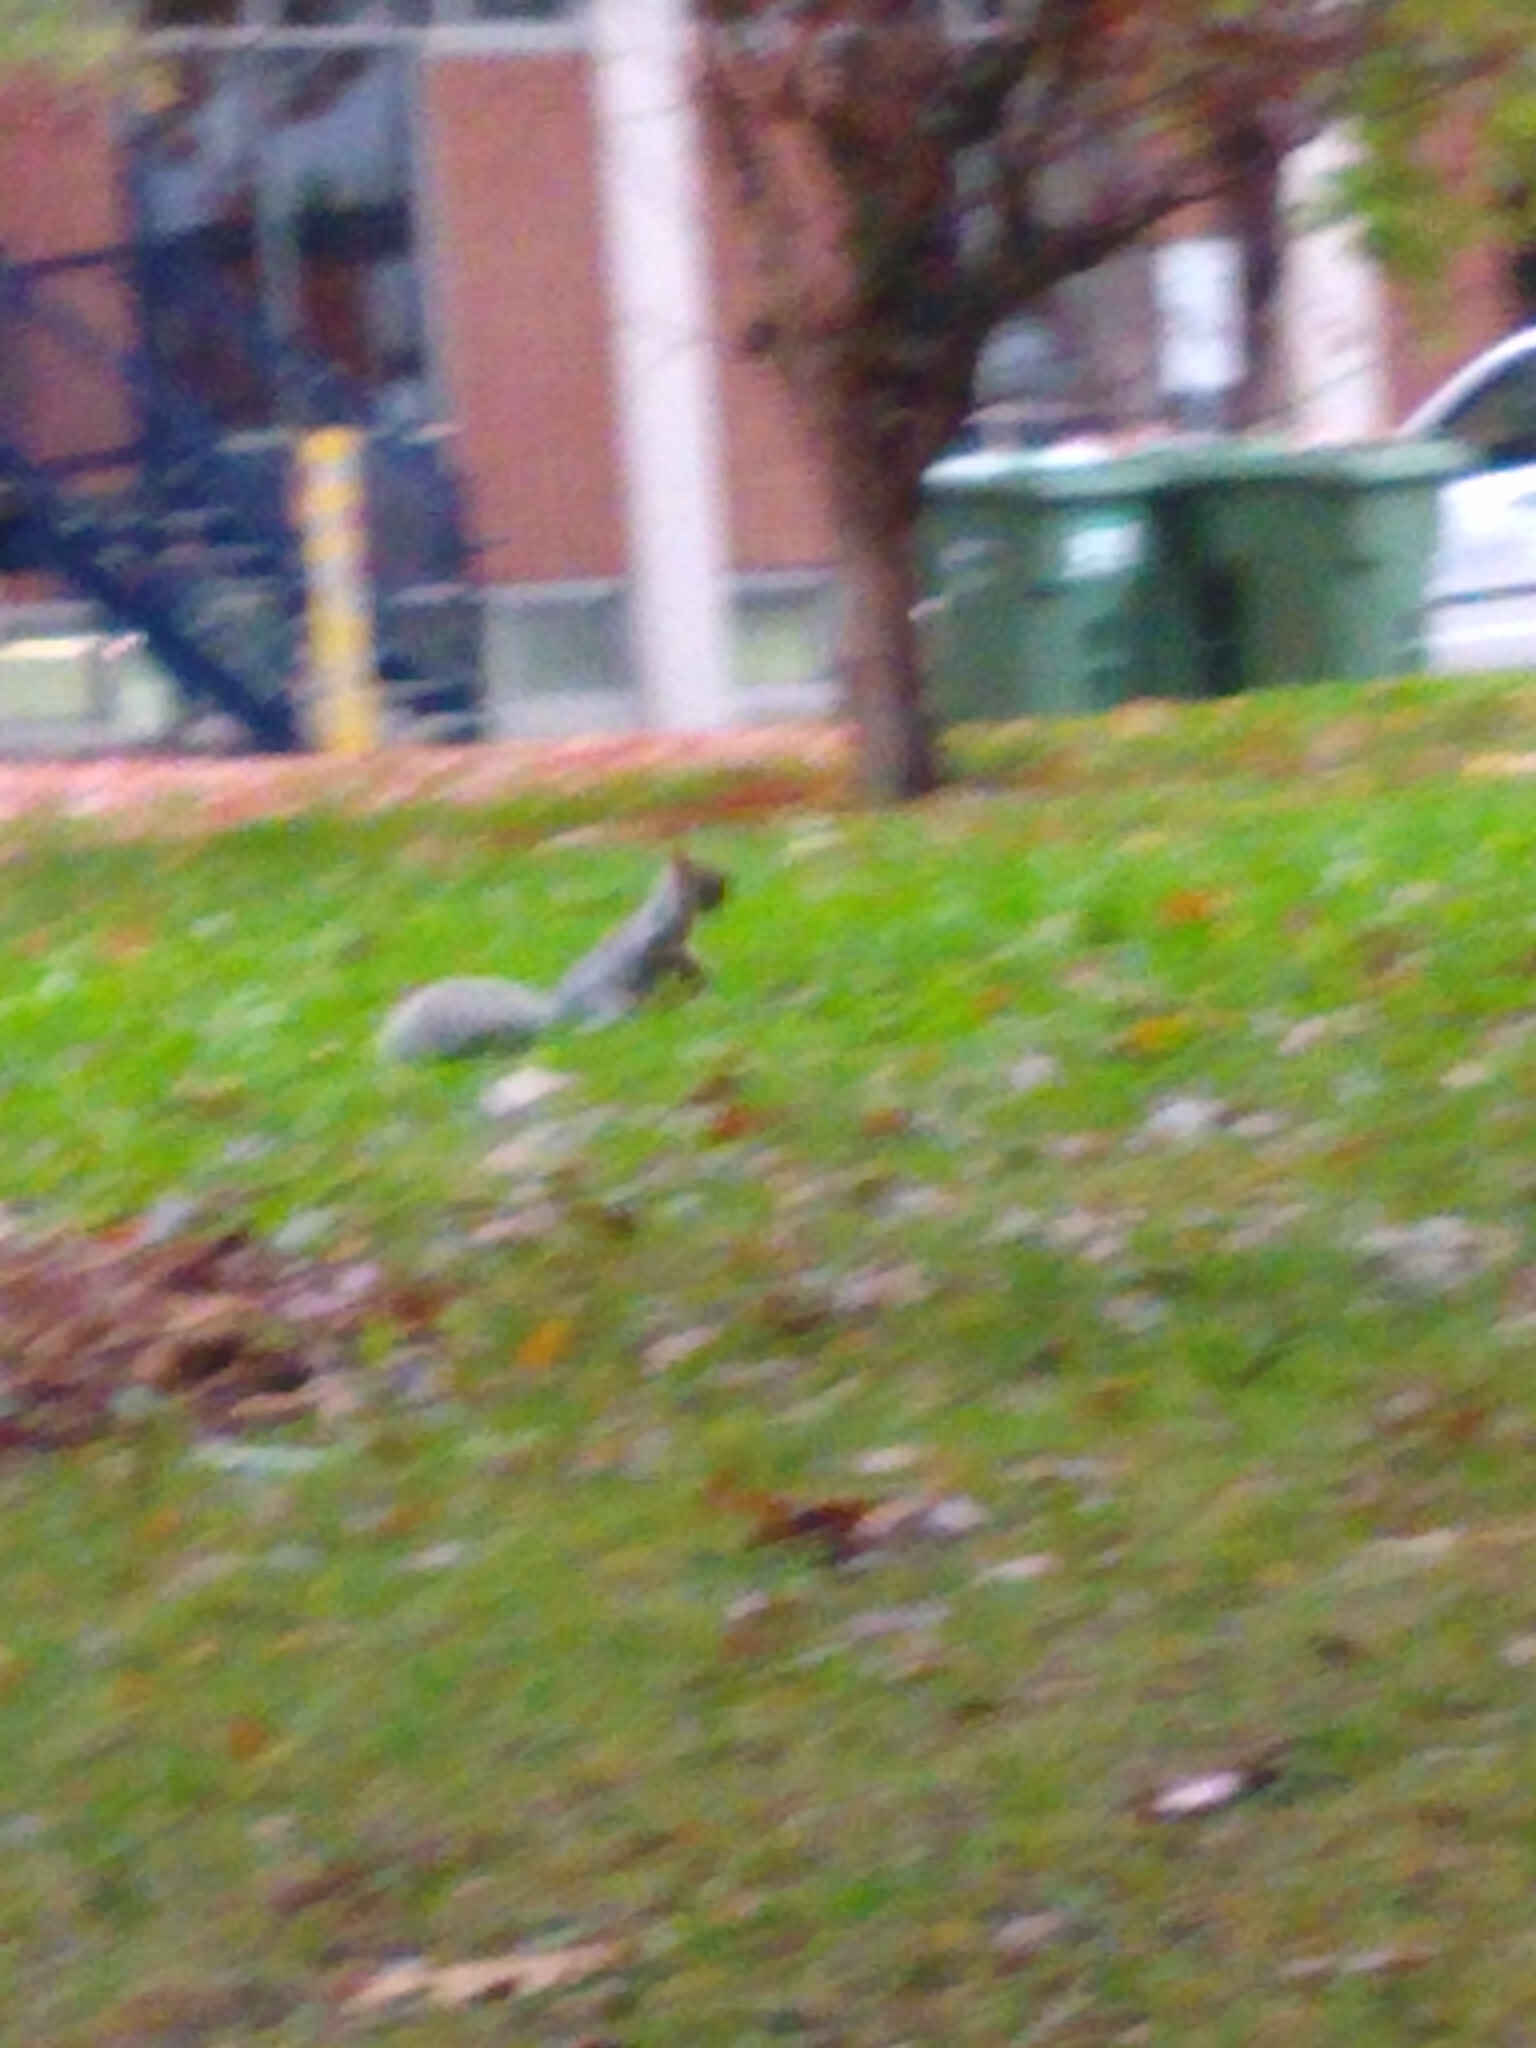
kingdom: Animalia
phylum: Chordata
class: Mammalia
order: Rodentia
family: Sciuridae
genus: Sciurus
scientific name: Sciurus carolinensis
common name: Eastern gray squirrel
